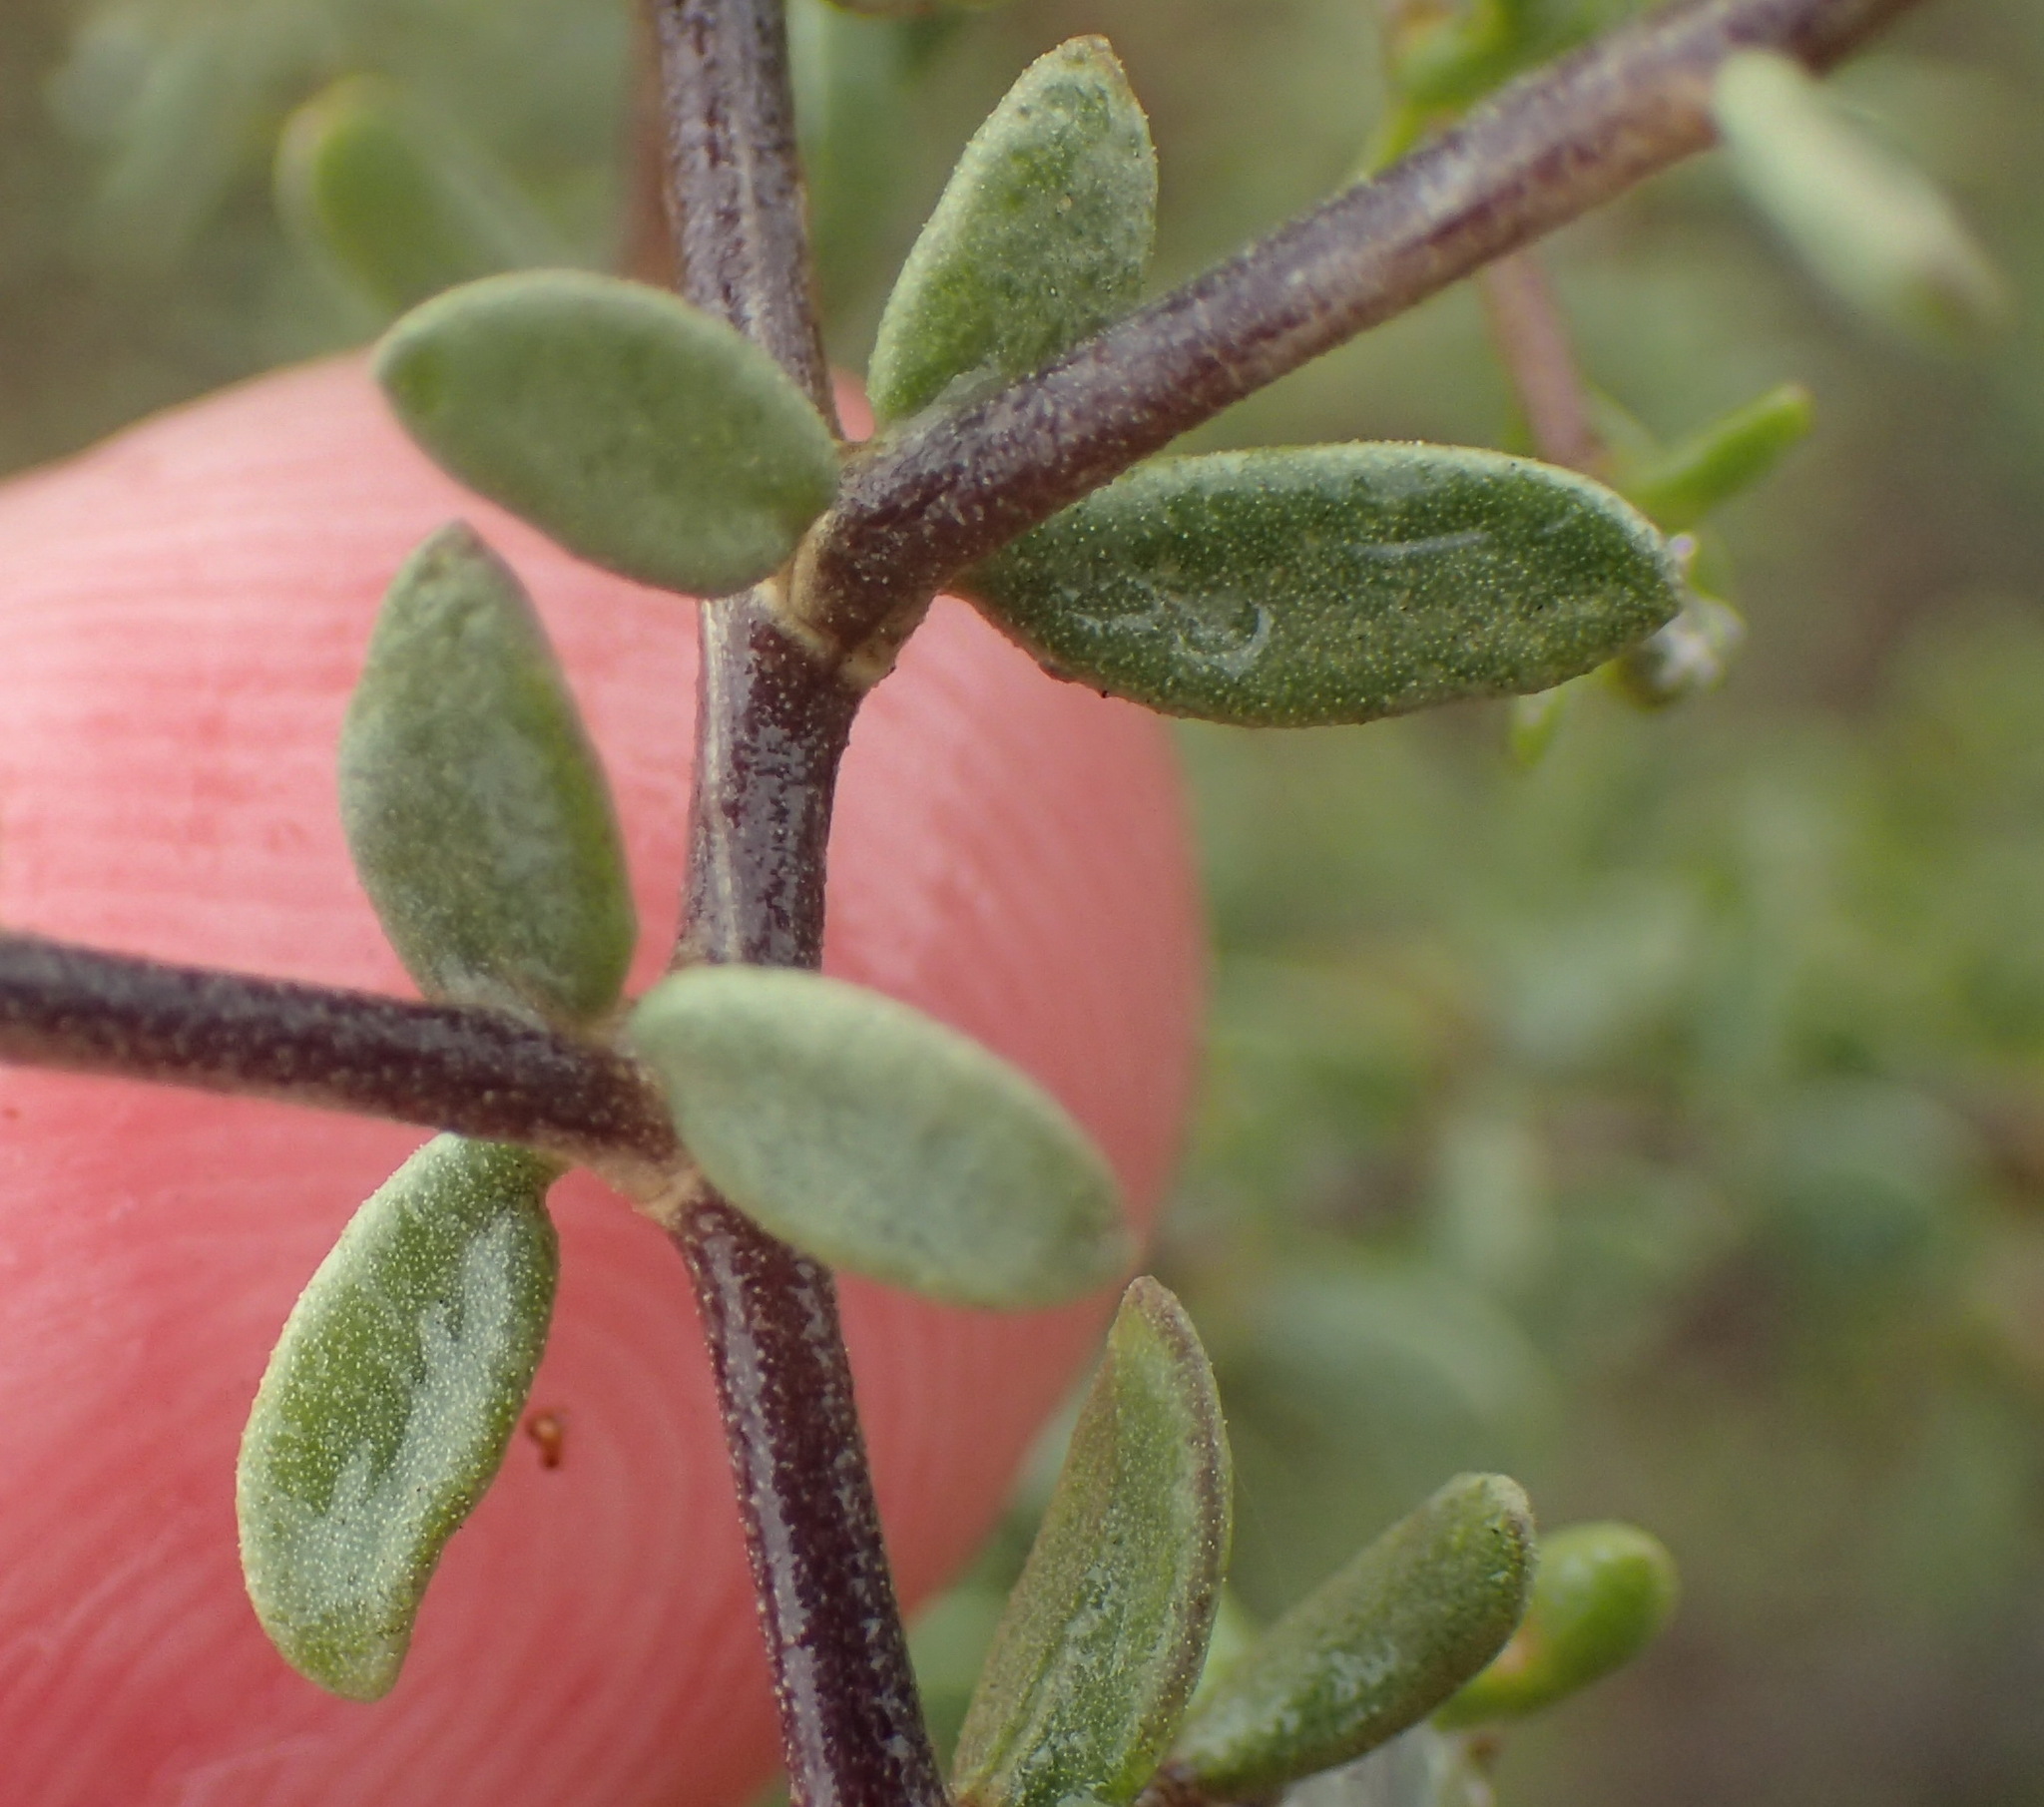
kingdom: Plantae
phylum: Tracheophyta
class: Magnoliopsida
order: Solanales
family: Solanaceae
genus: Lycium
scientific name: Lycium pumilum
